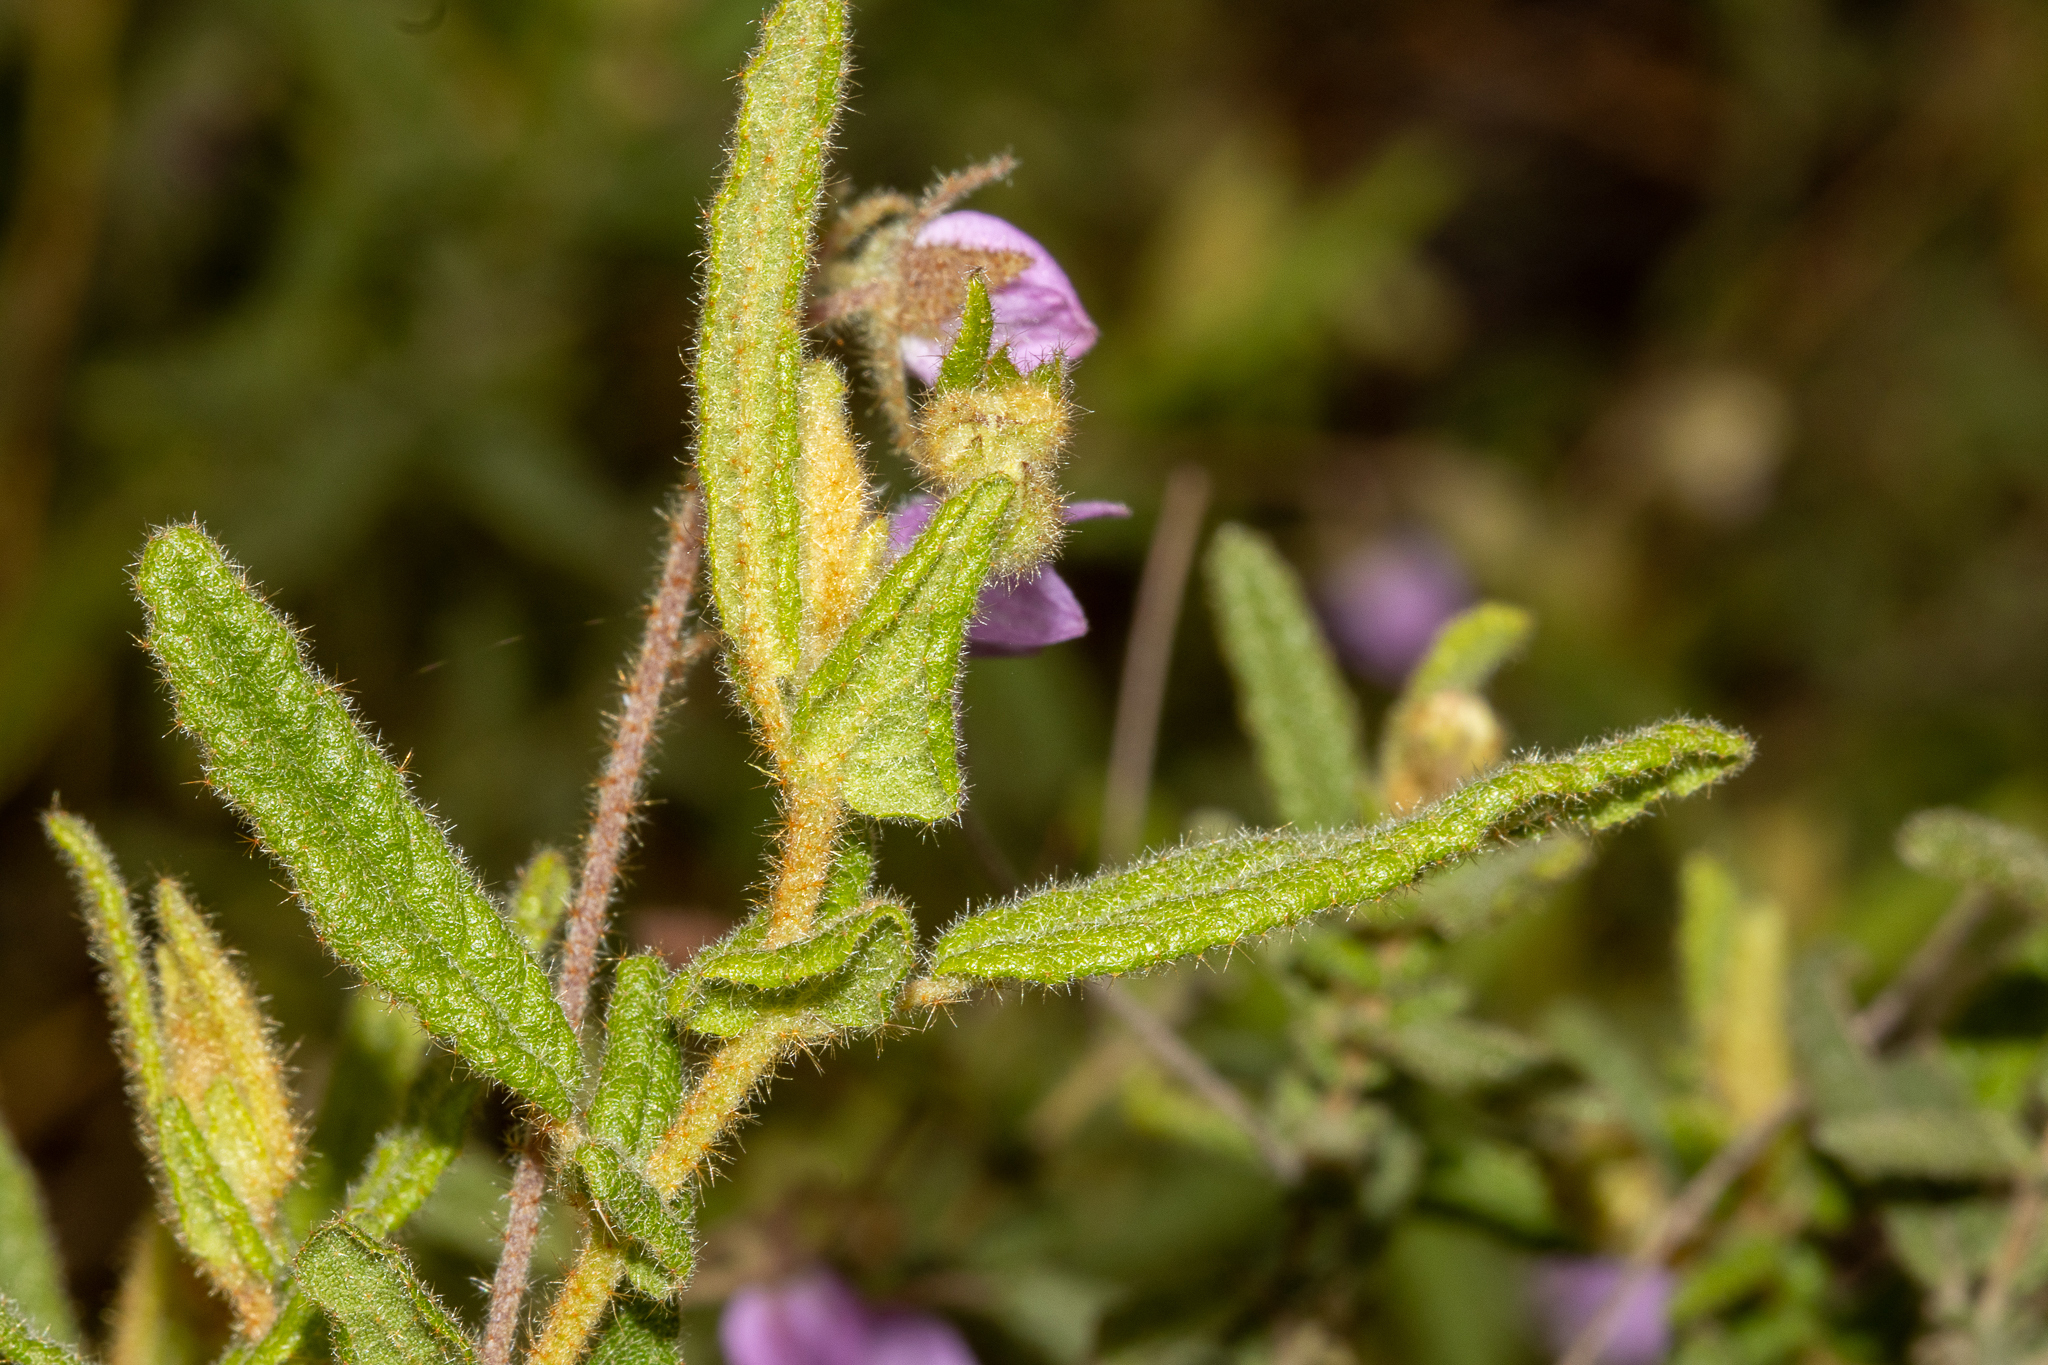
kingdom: Plantae
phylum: Tracheophyta
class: Magnoliopsida
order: Malvales
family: Malvaceae
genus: Thomasia
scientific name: Thomasia petalocalyx
